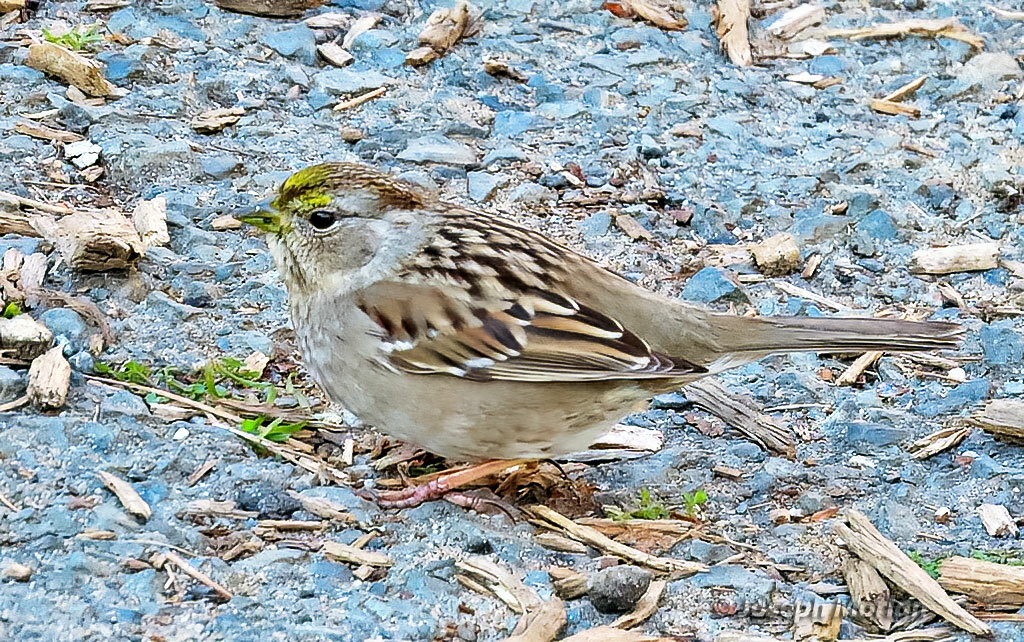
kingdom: Animalia
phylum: Chordata
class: Aves
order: Passeriformes
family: Passerellidae
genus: Zonotrichia
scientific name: Zonotrichia atricapilla
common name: Golden-crowned sparrow
